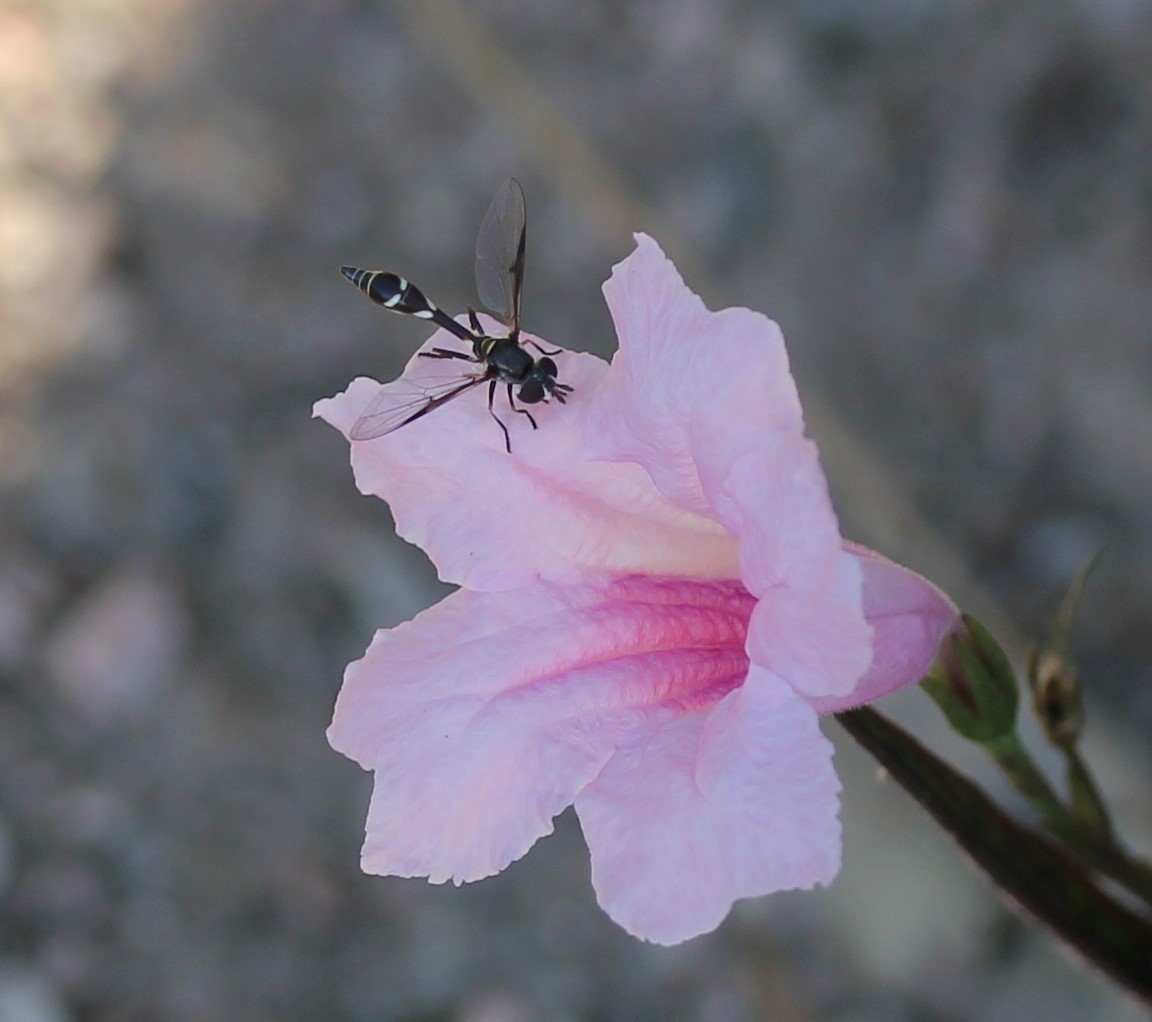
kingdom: Animalia
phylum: Arthropoda
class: Insecta
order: Diptera
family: Syrphidae
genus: Dioprosopa
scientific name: Dioprosopa clavatus
